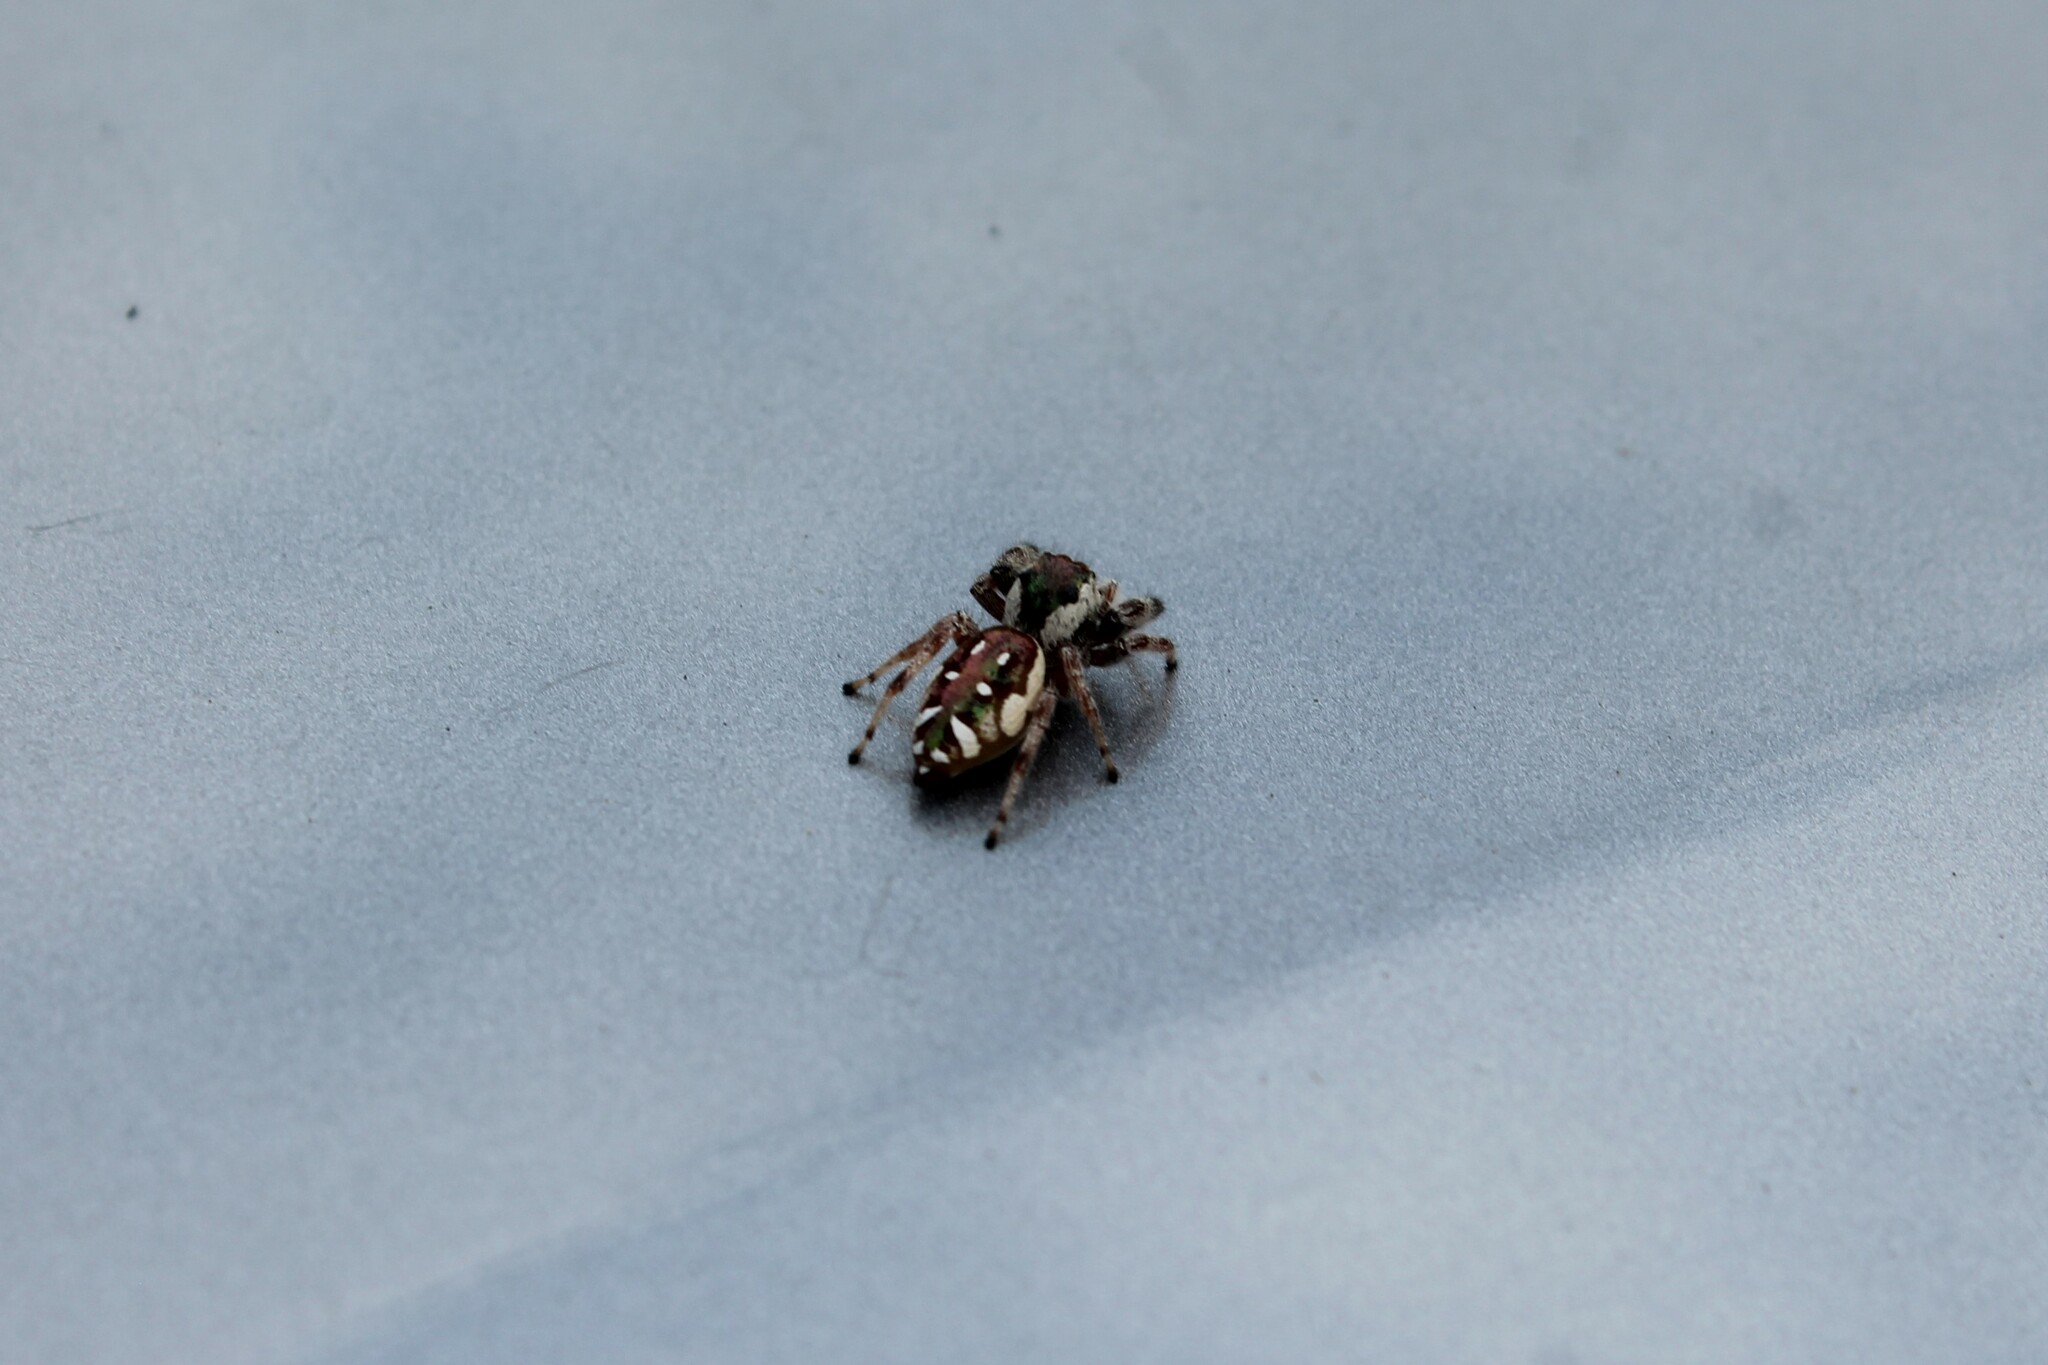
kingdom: Animalia
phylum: Arthropoda
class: Arachnida
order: Araneae
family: Salticidae
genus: Paraphidippus
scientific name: Paraphidippus aurantius
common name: Jumping spiders
